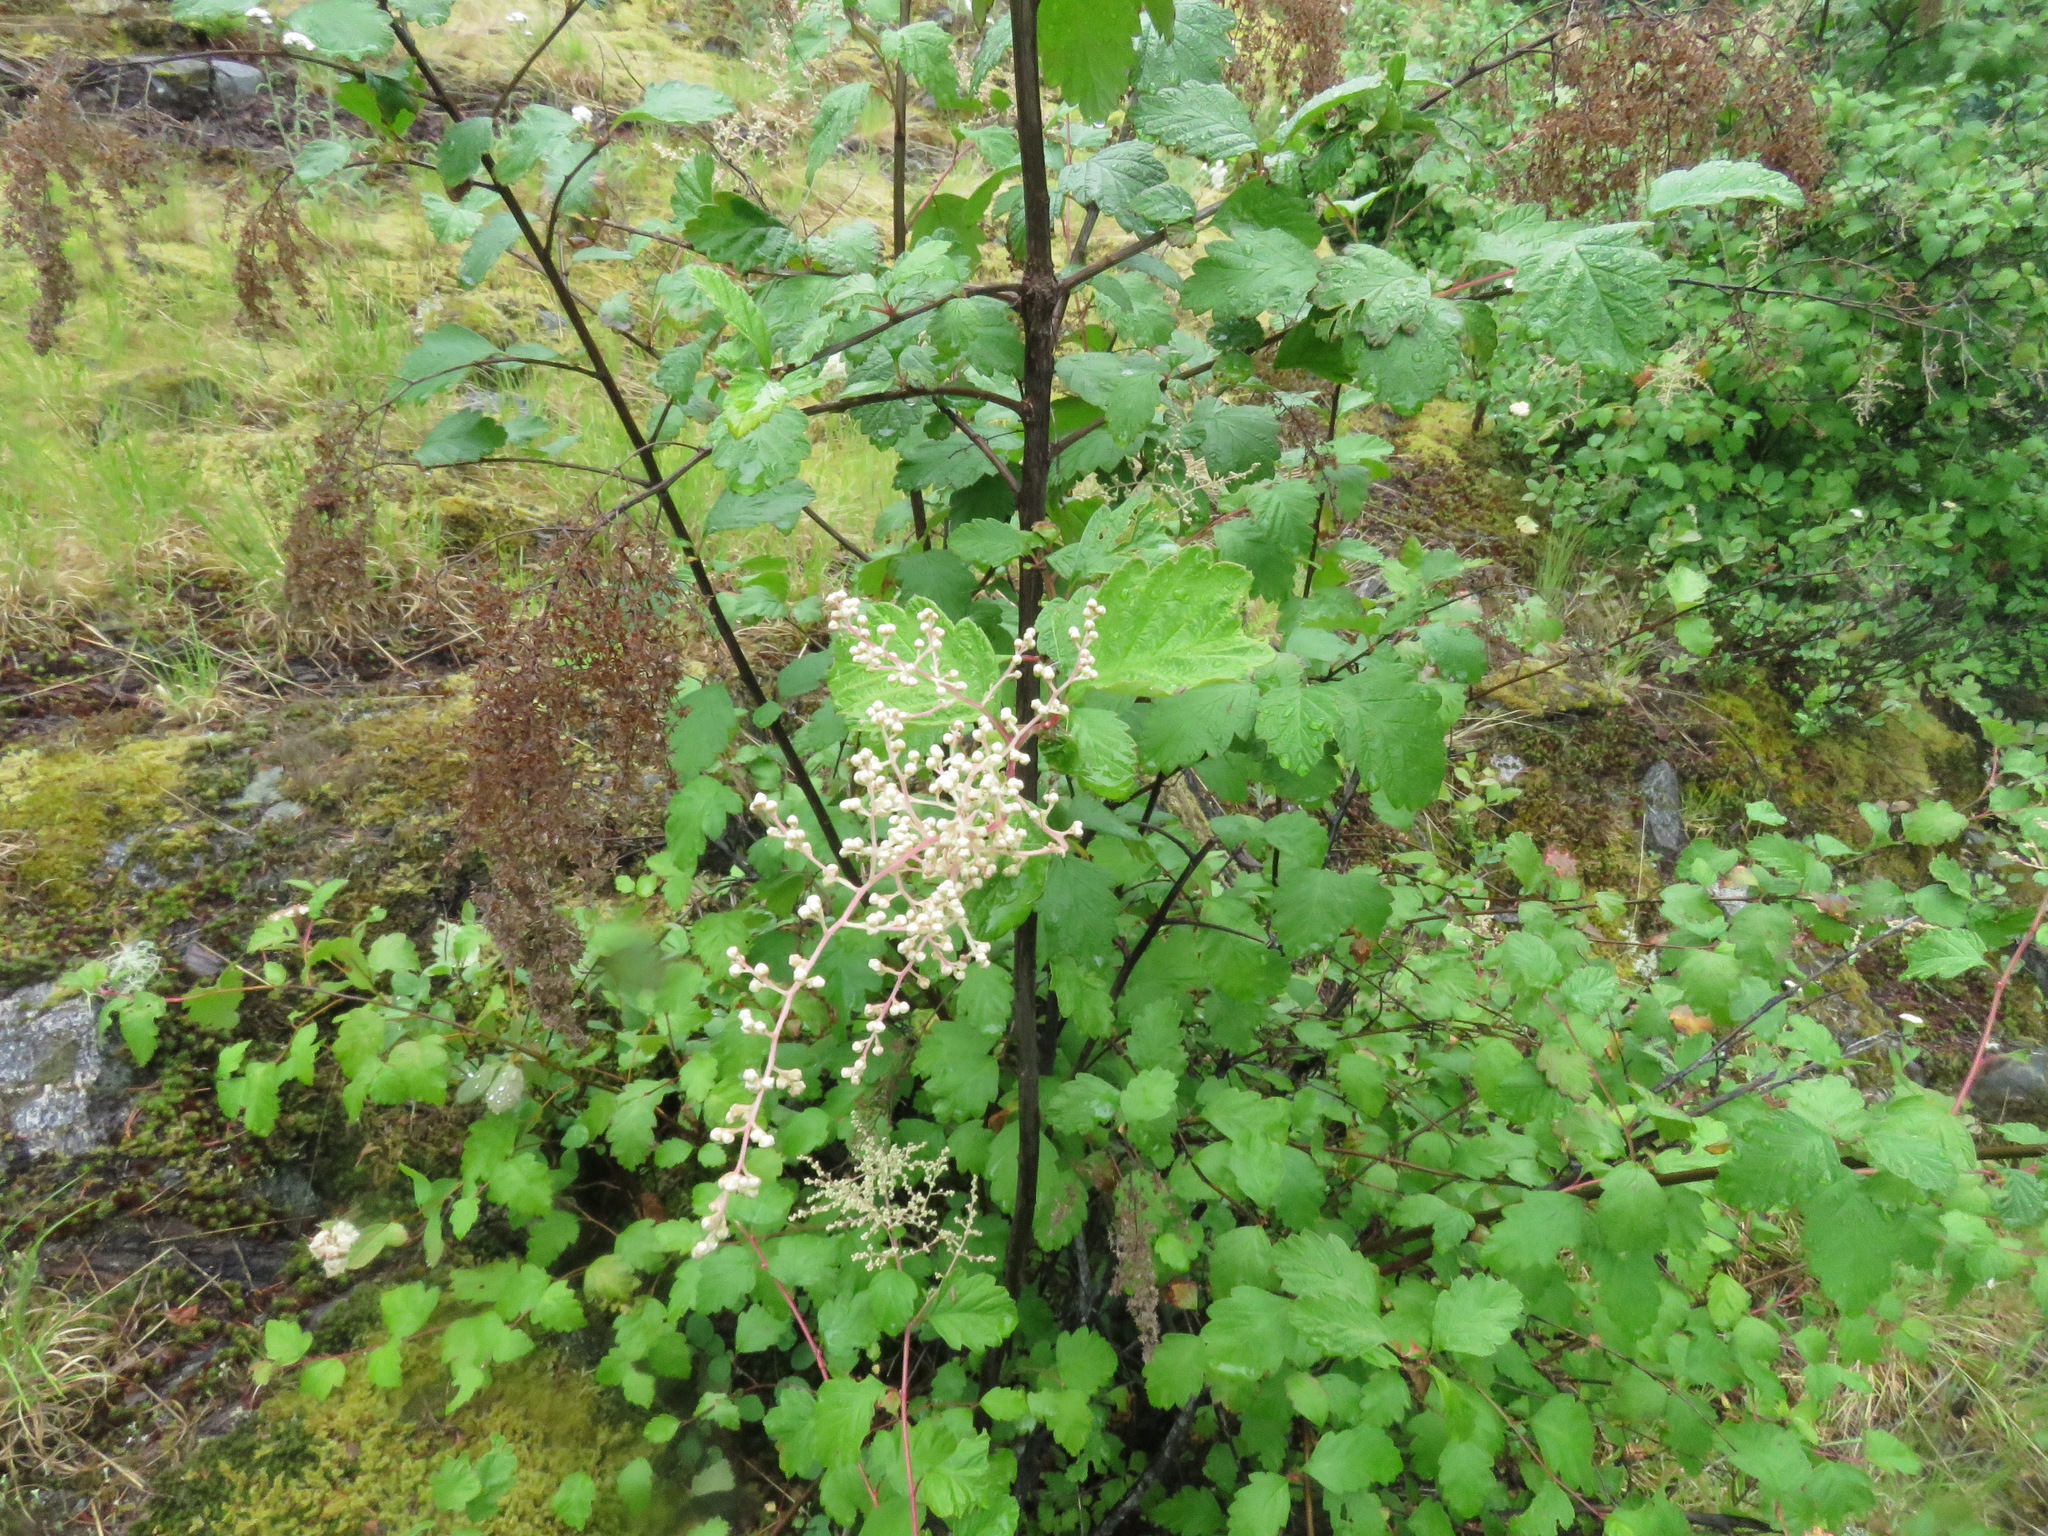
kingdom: Plantae
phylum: Tracheophyta
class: Magnoliopsida
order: Rosales
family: Rosaceae
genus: Holodiscus
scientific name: Holodiscus discolor
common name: Oceanspray
